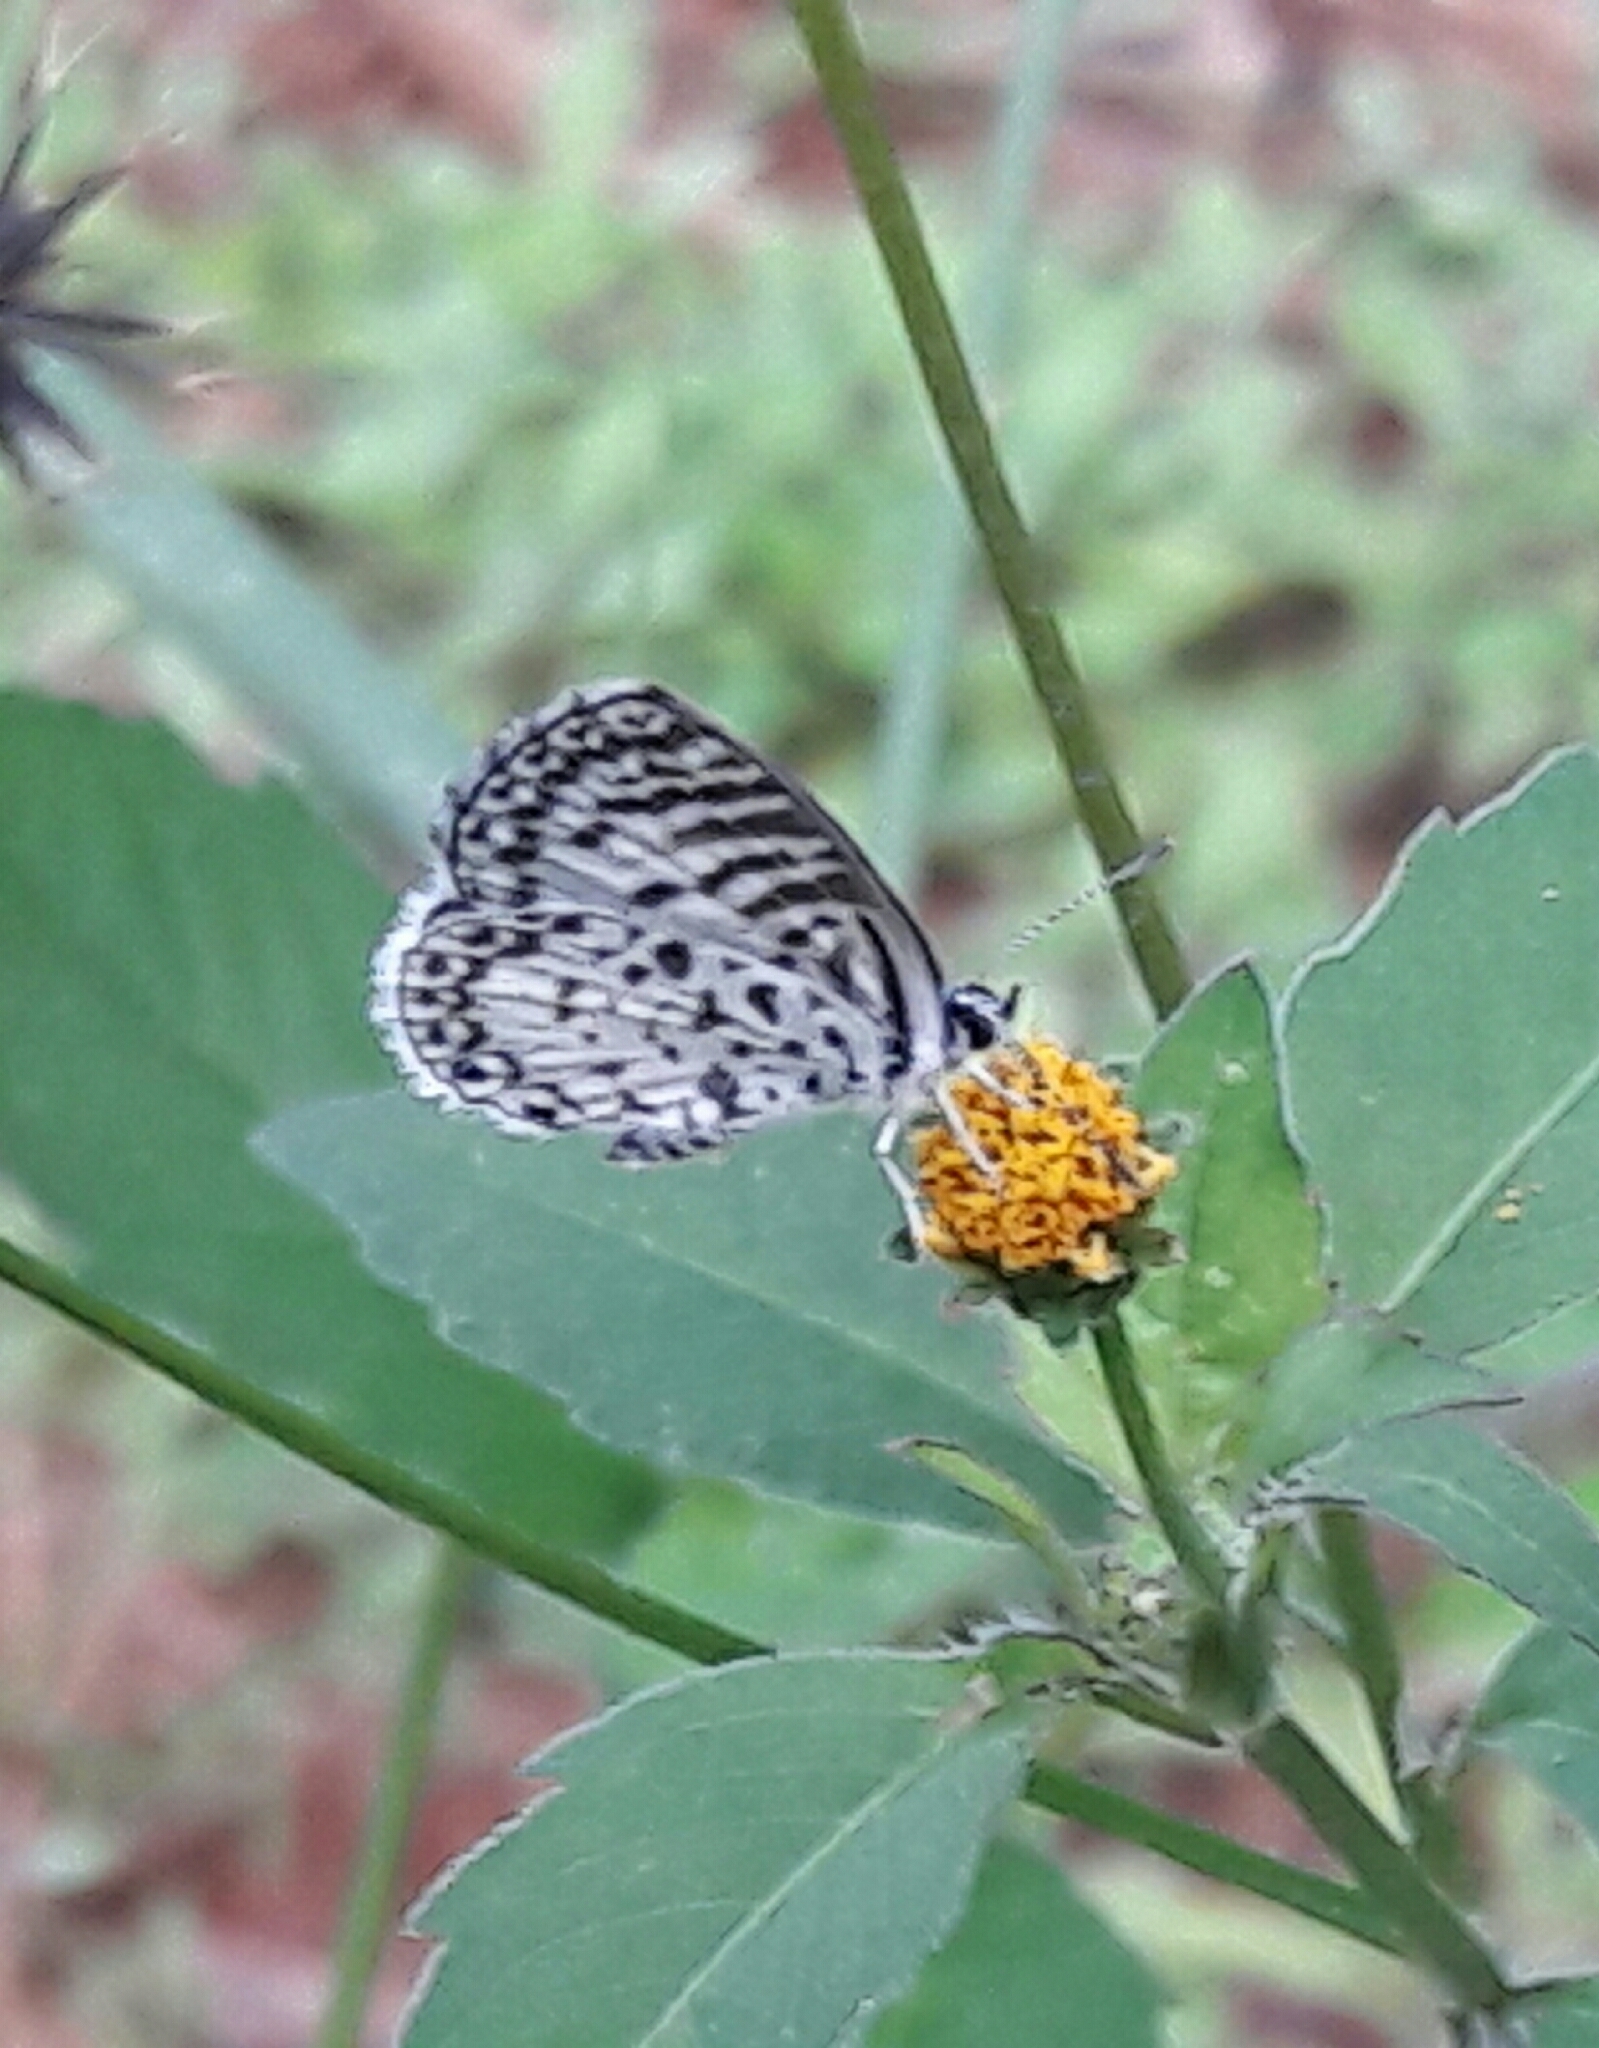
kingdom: Animalia
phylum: Arthropoda
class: Insecta
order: Lepidoptera
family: Lycaenidae
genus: Leptotes
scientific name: Leptotes cassius
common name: Cassius blue
